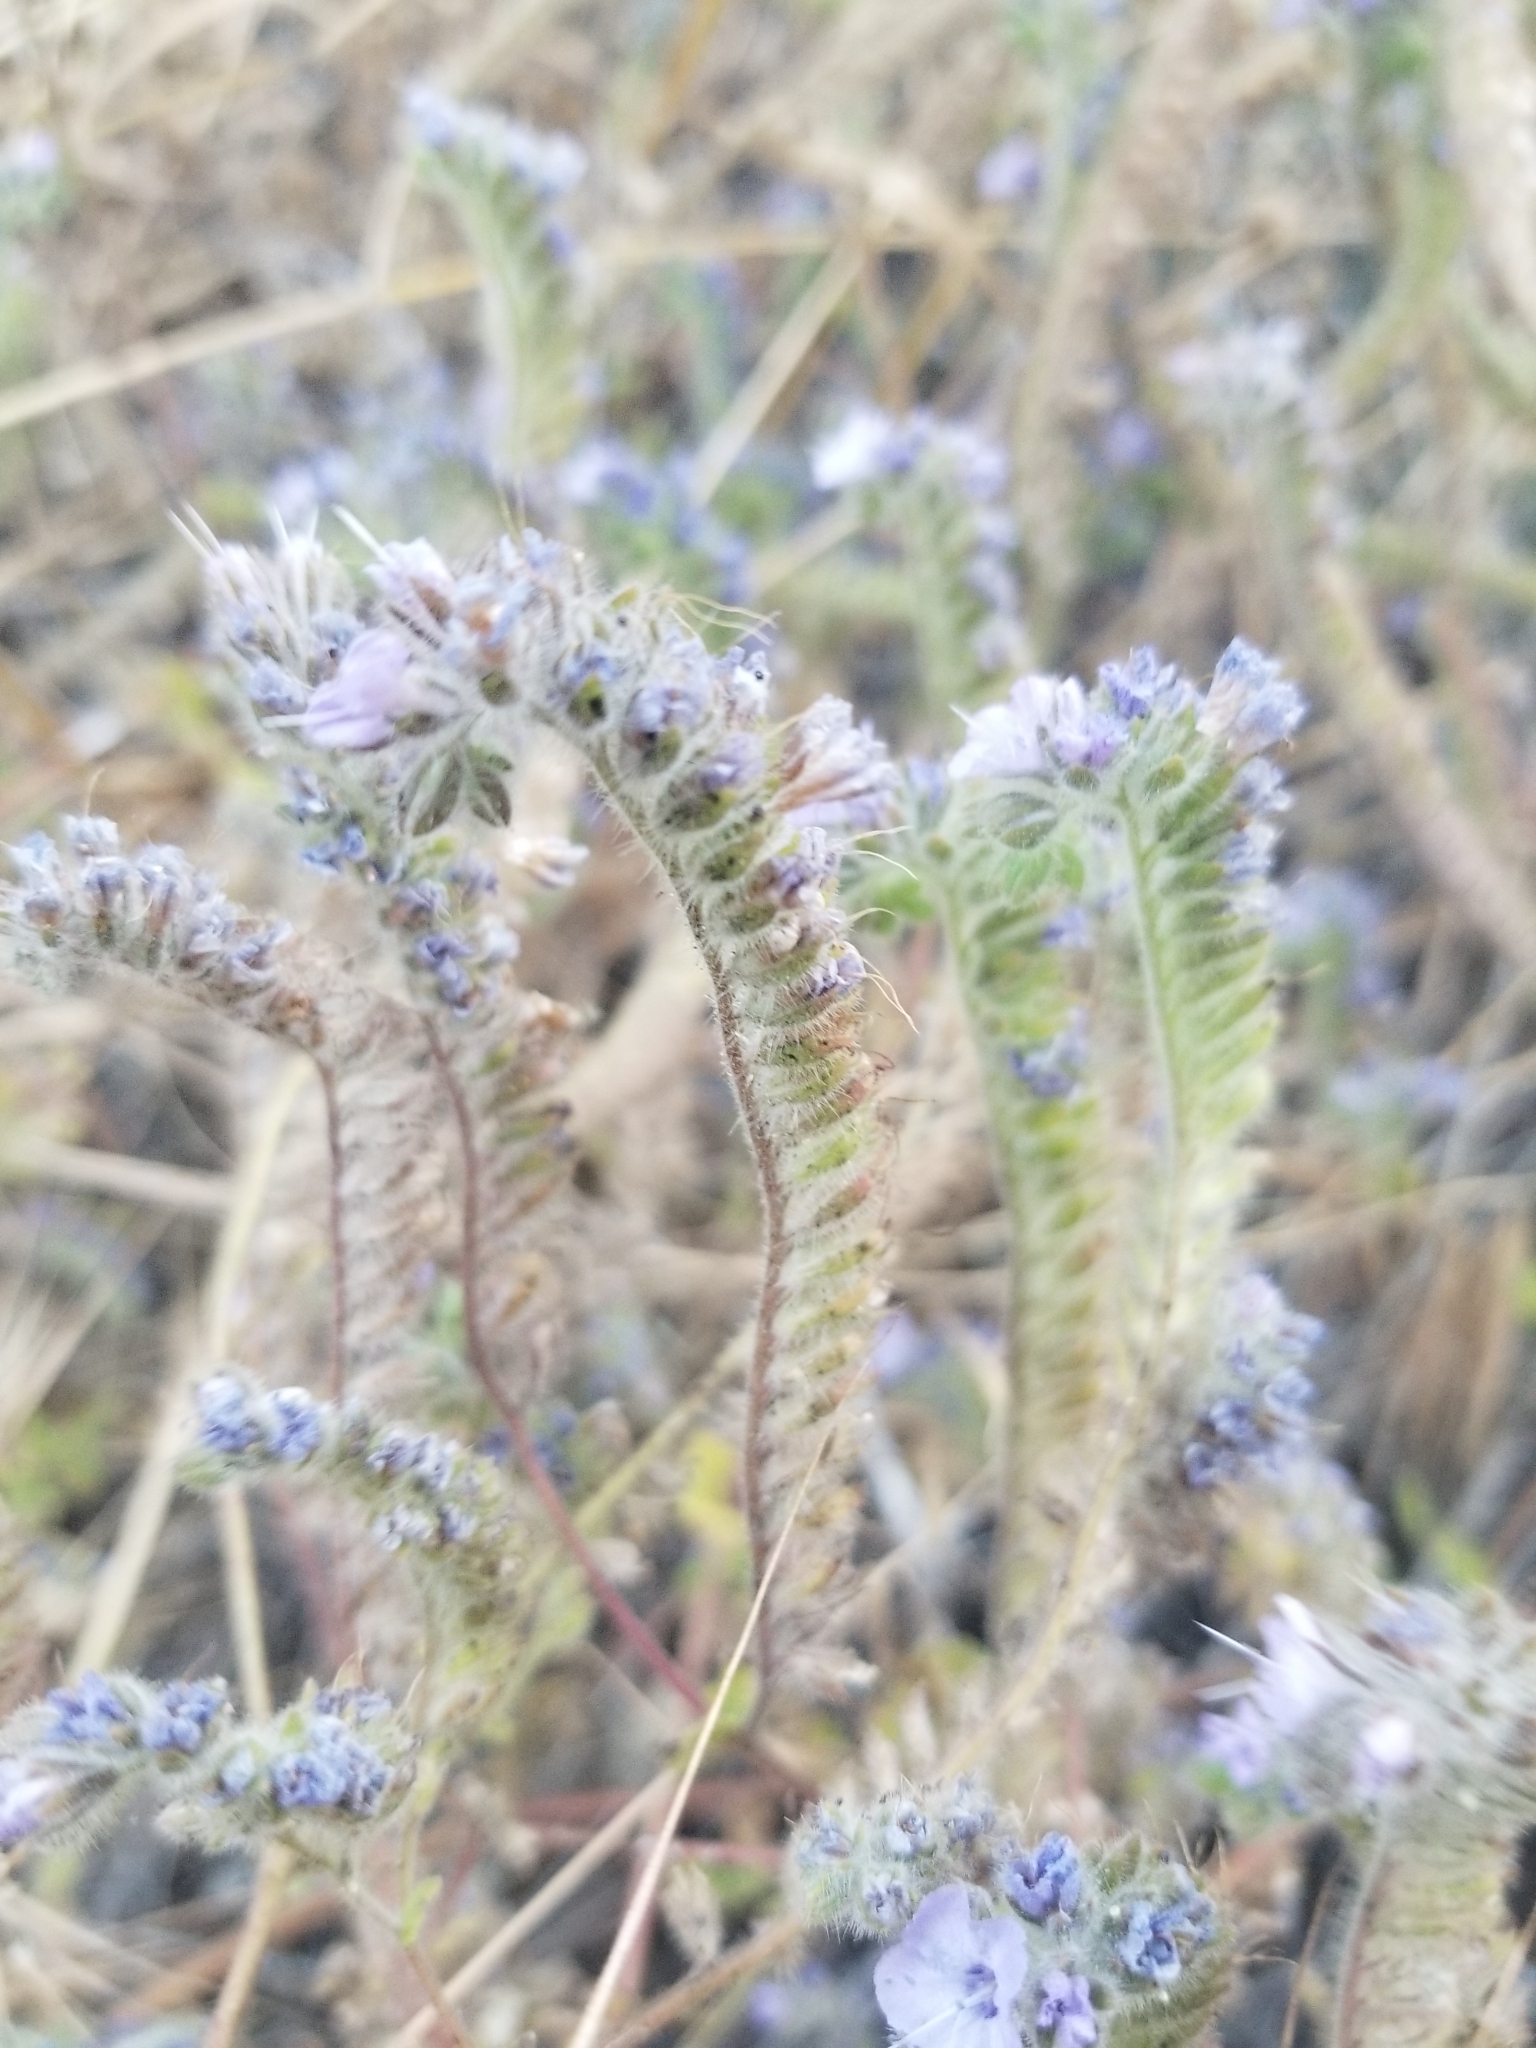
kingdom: Plantae
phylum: Tracheophyta
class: Magnoliopsida
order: Boraginales
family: Hydrophyllaceae
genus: Phacelia
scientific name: Phacelia distans
